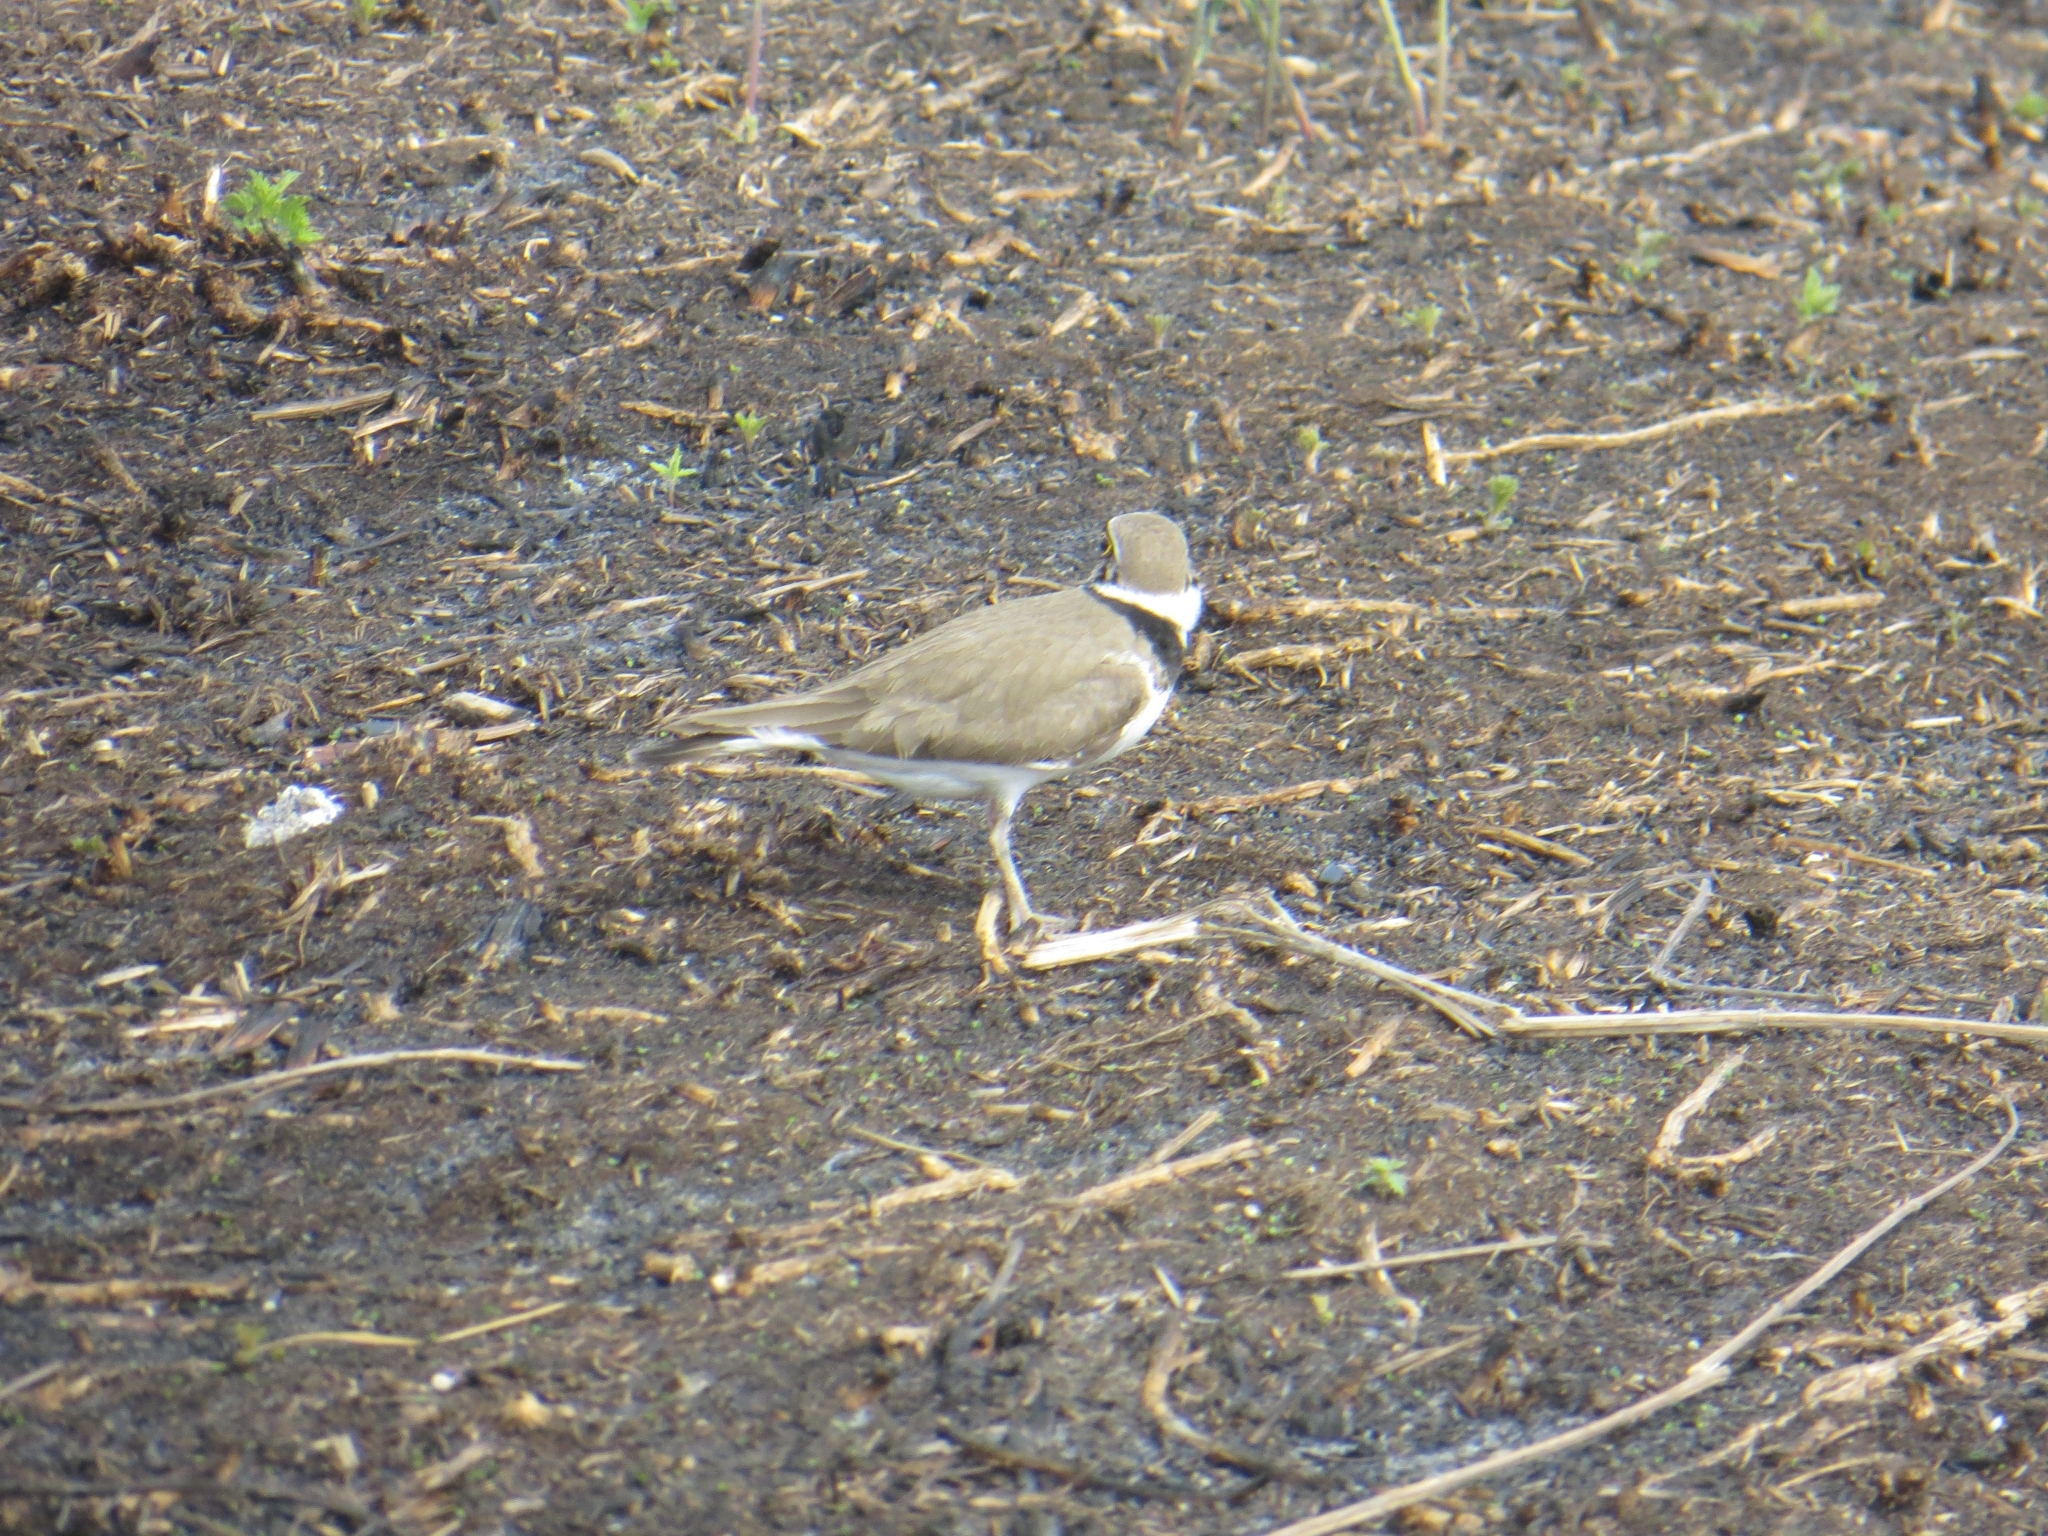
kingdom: Animalia
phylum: Chordata
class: Aves
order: Charadriiformes
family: Charadriidae
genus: Charadrius
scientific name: Charadrius dubius
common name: Little ringed plover
